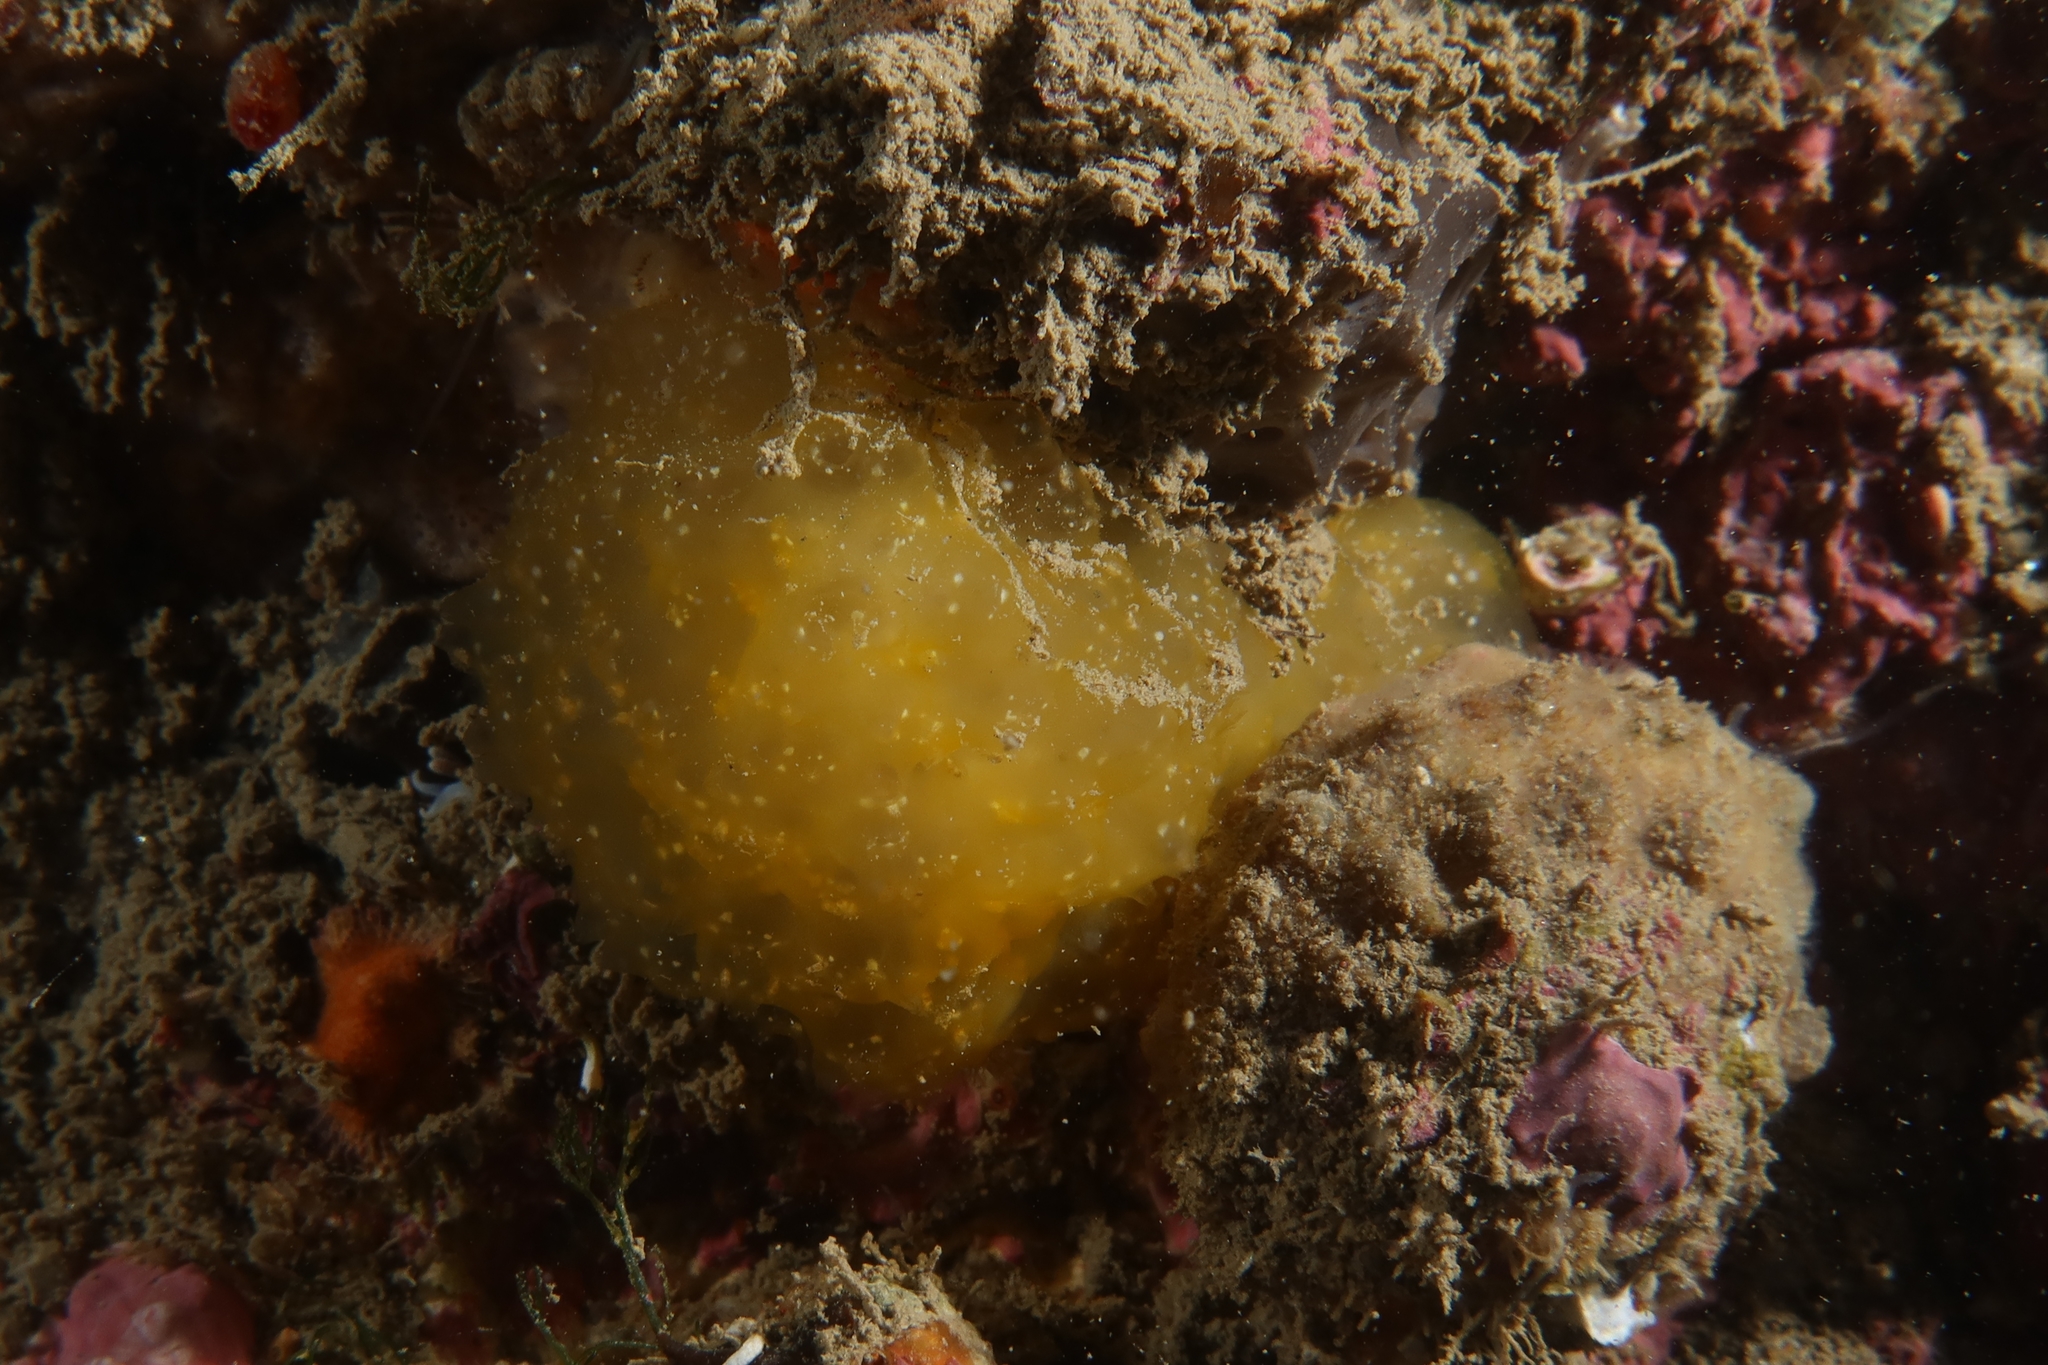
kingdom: Animalia
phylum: Chordata
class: Ascidiacea
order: Aplousobranchia
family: Pseudodistomidae
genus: Pseudodistoma
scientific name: Pseudodistoma crucigaster
